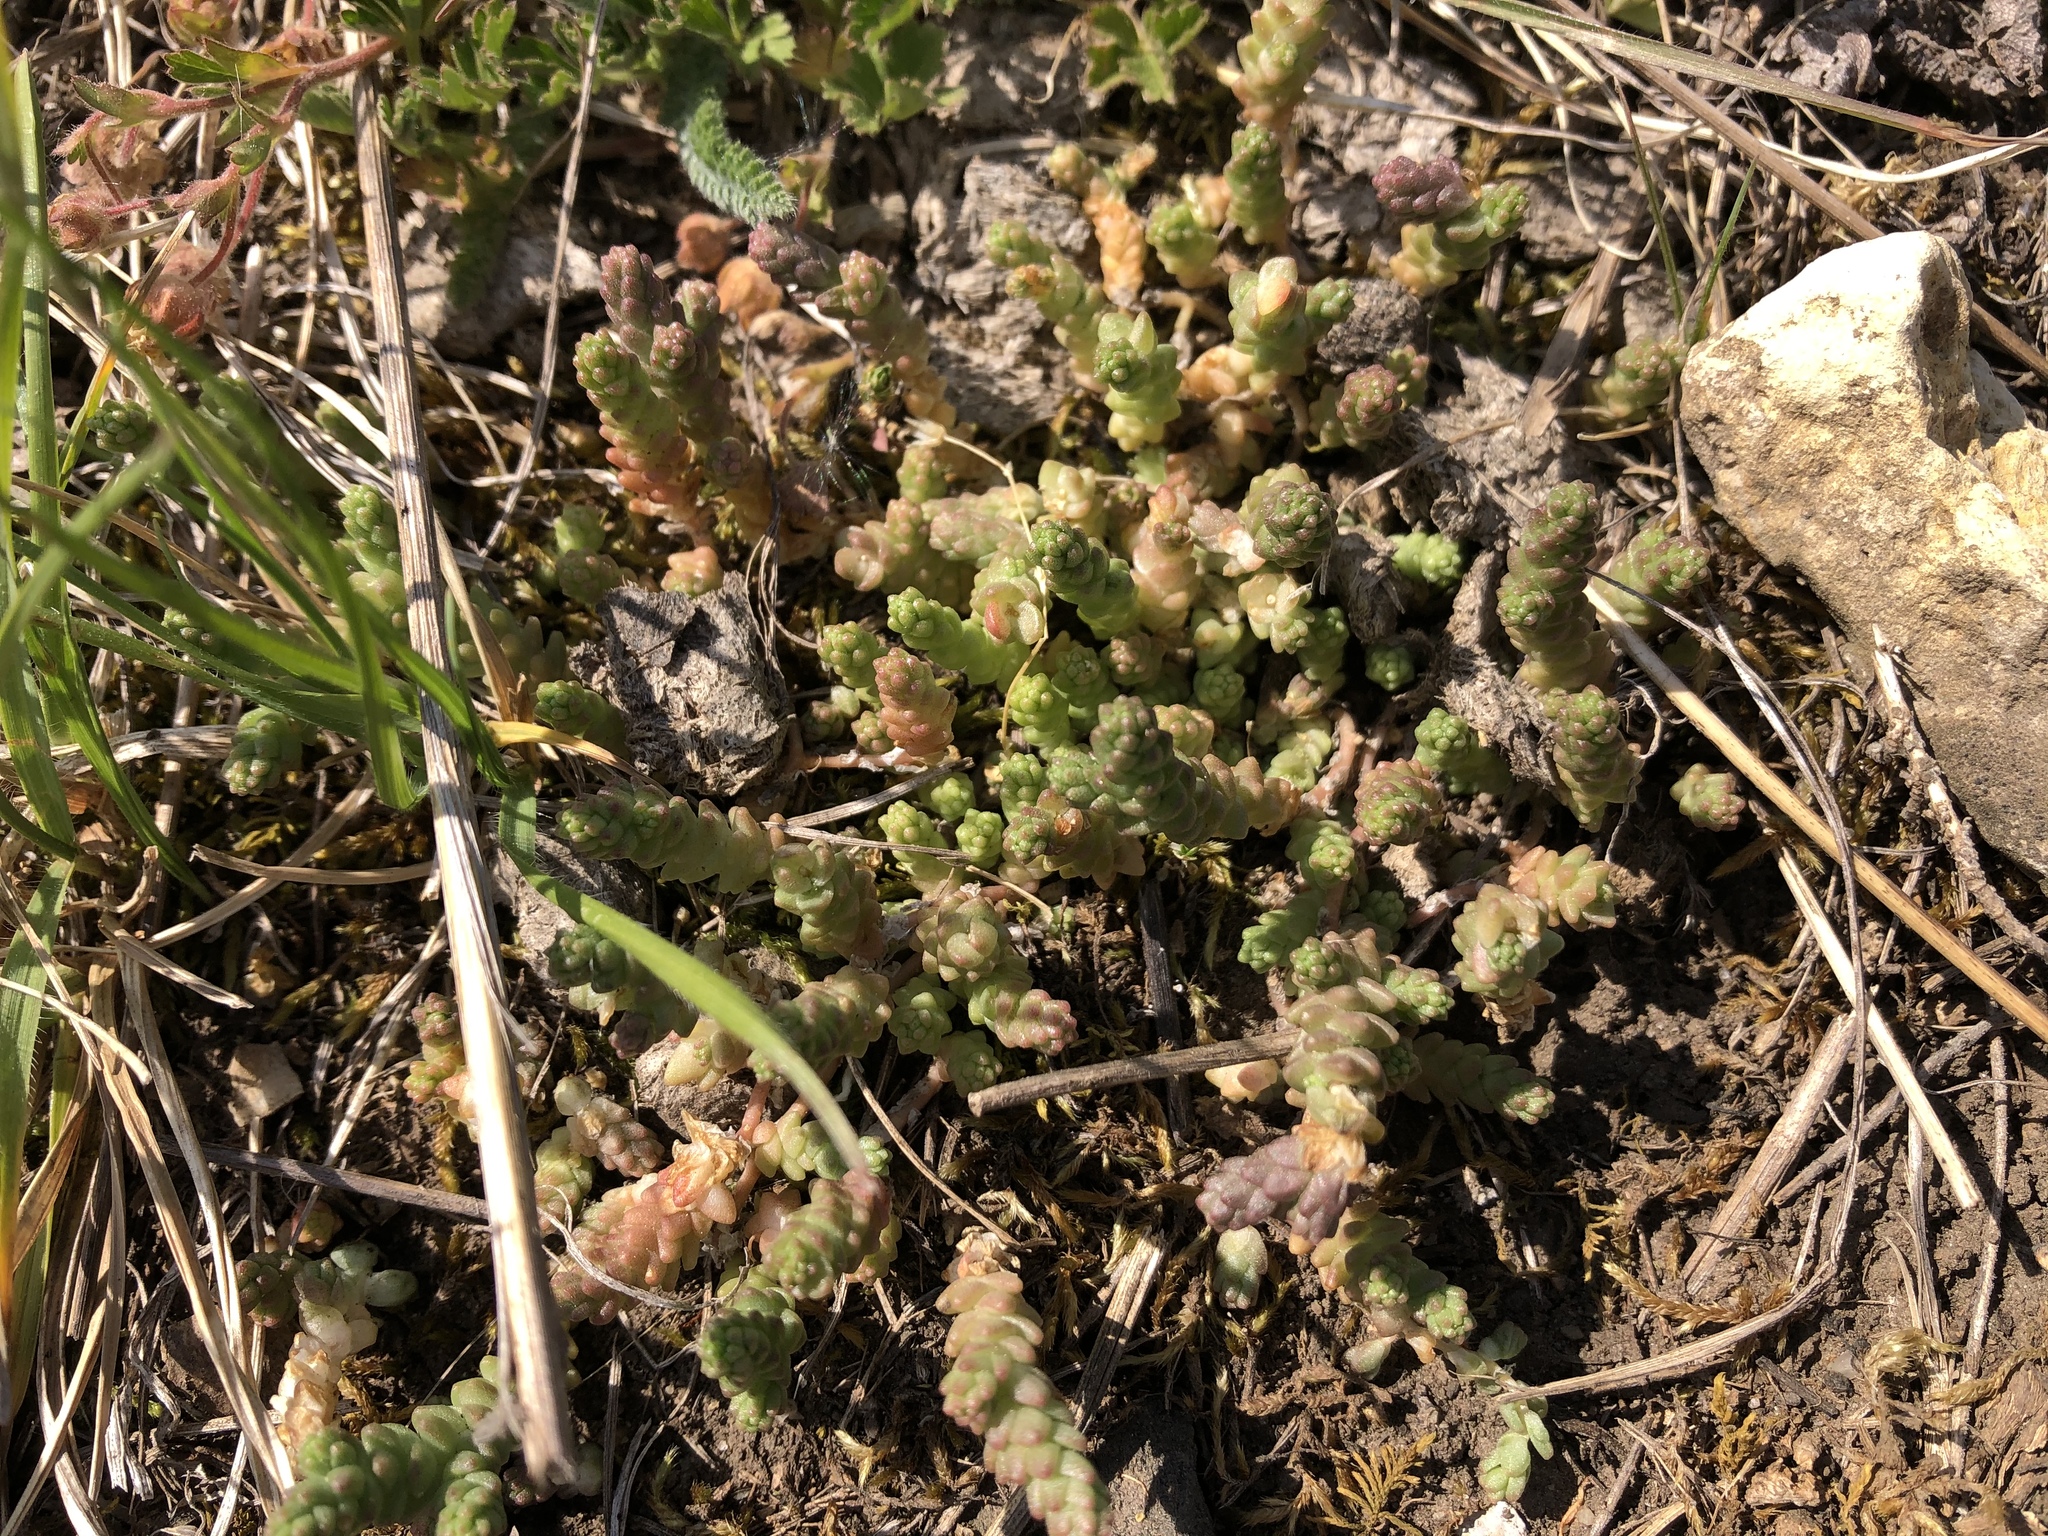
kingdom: Plantae
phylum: Tracheophyta
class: Magnoliopsida
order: Saxifragales
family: Crassulaceae
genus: Sedum
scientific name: Sedum acre
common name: Biting stonecrop
